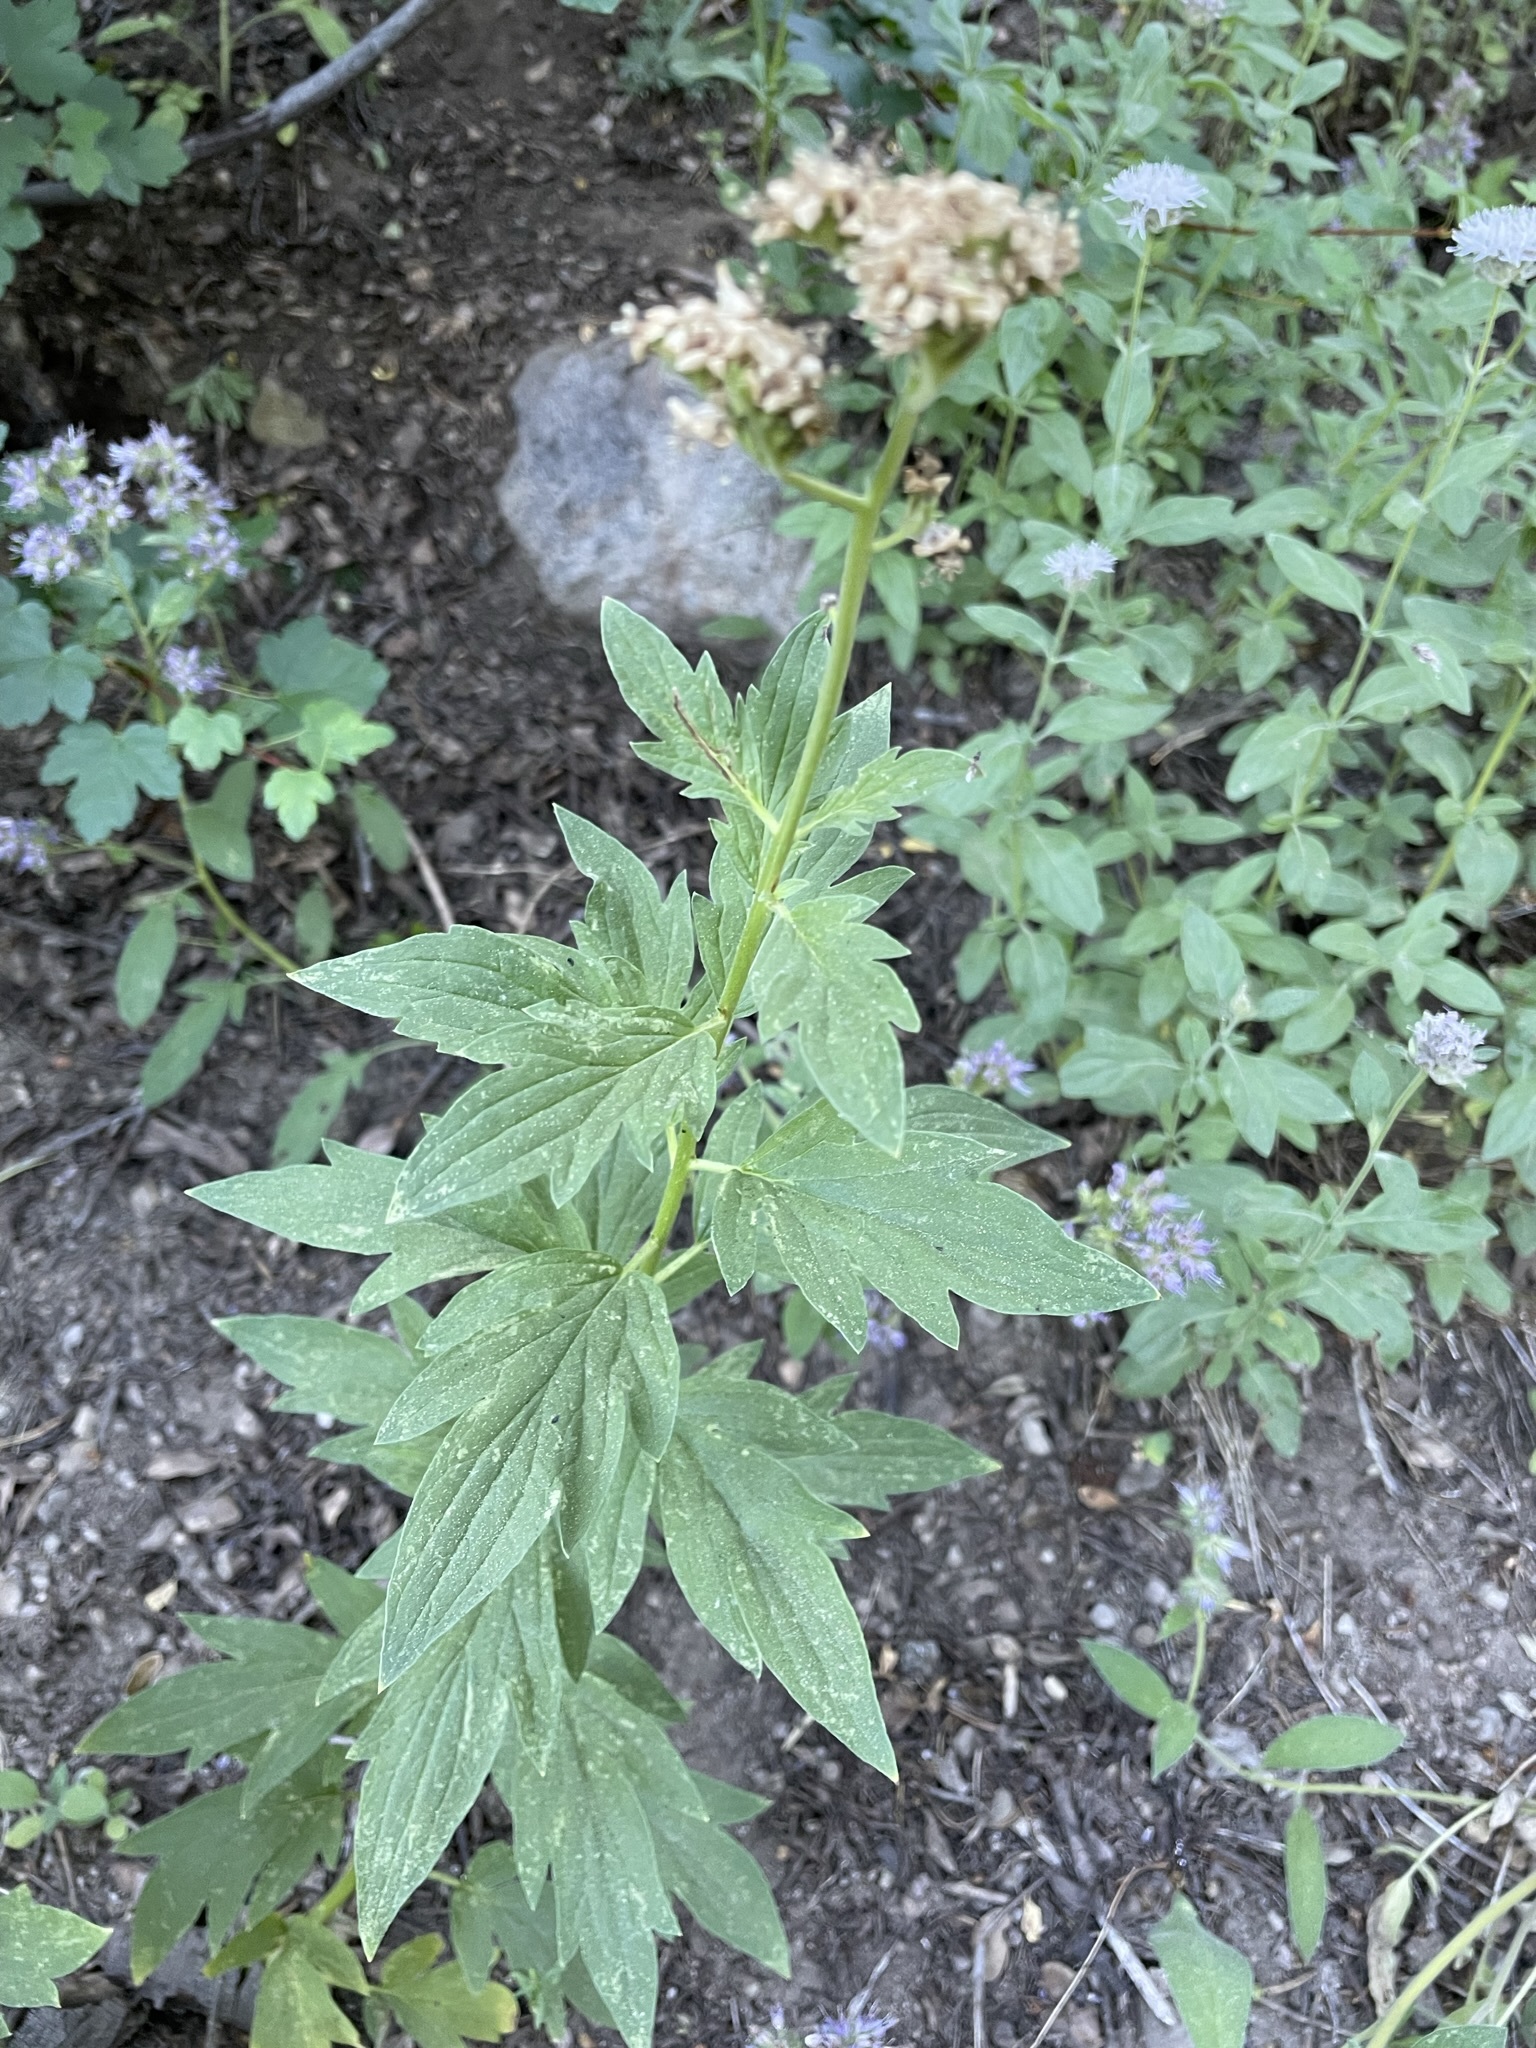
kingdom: Plantae
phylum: Tracheophyta
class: Magnoliopsida
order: Boraginales
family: Hydrophyllaceae
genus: Phacelia
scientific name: Phacelia procera
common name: Tall phacelia
